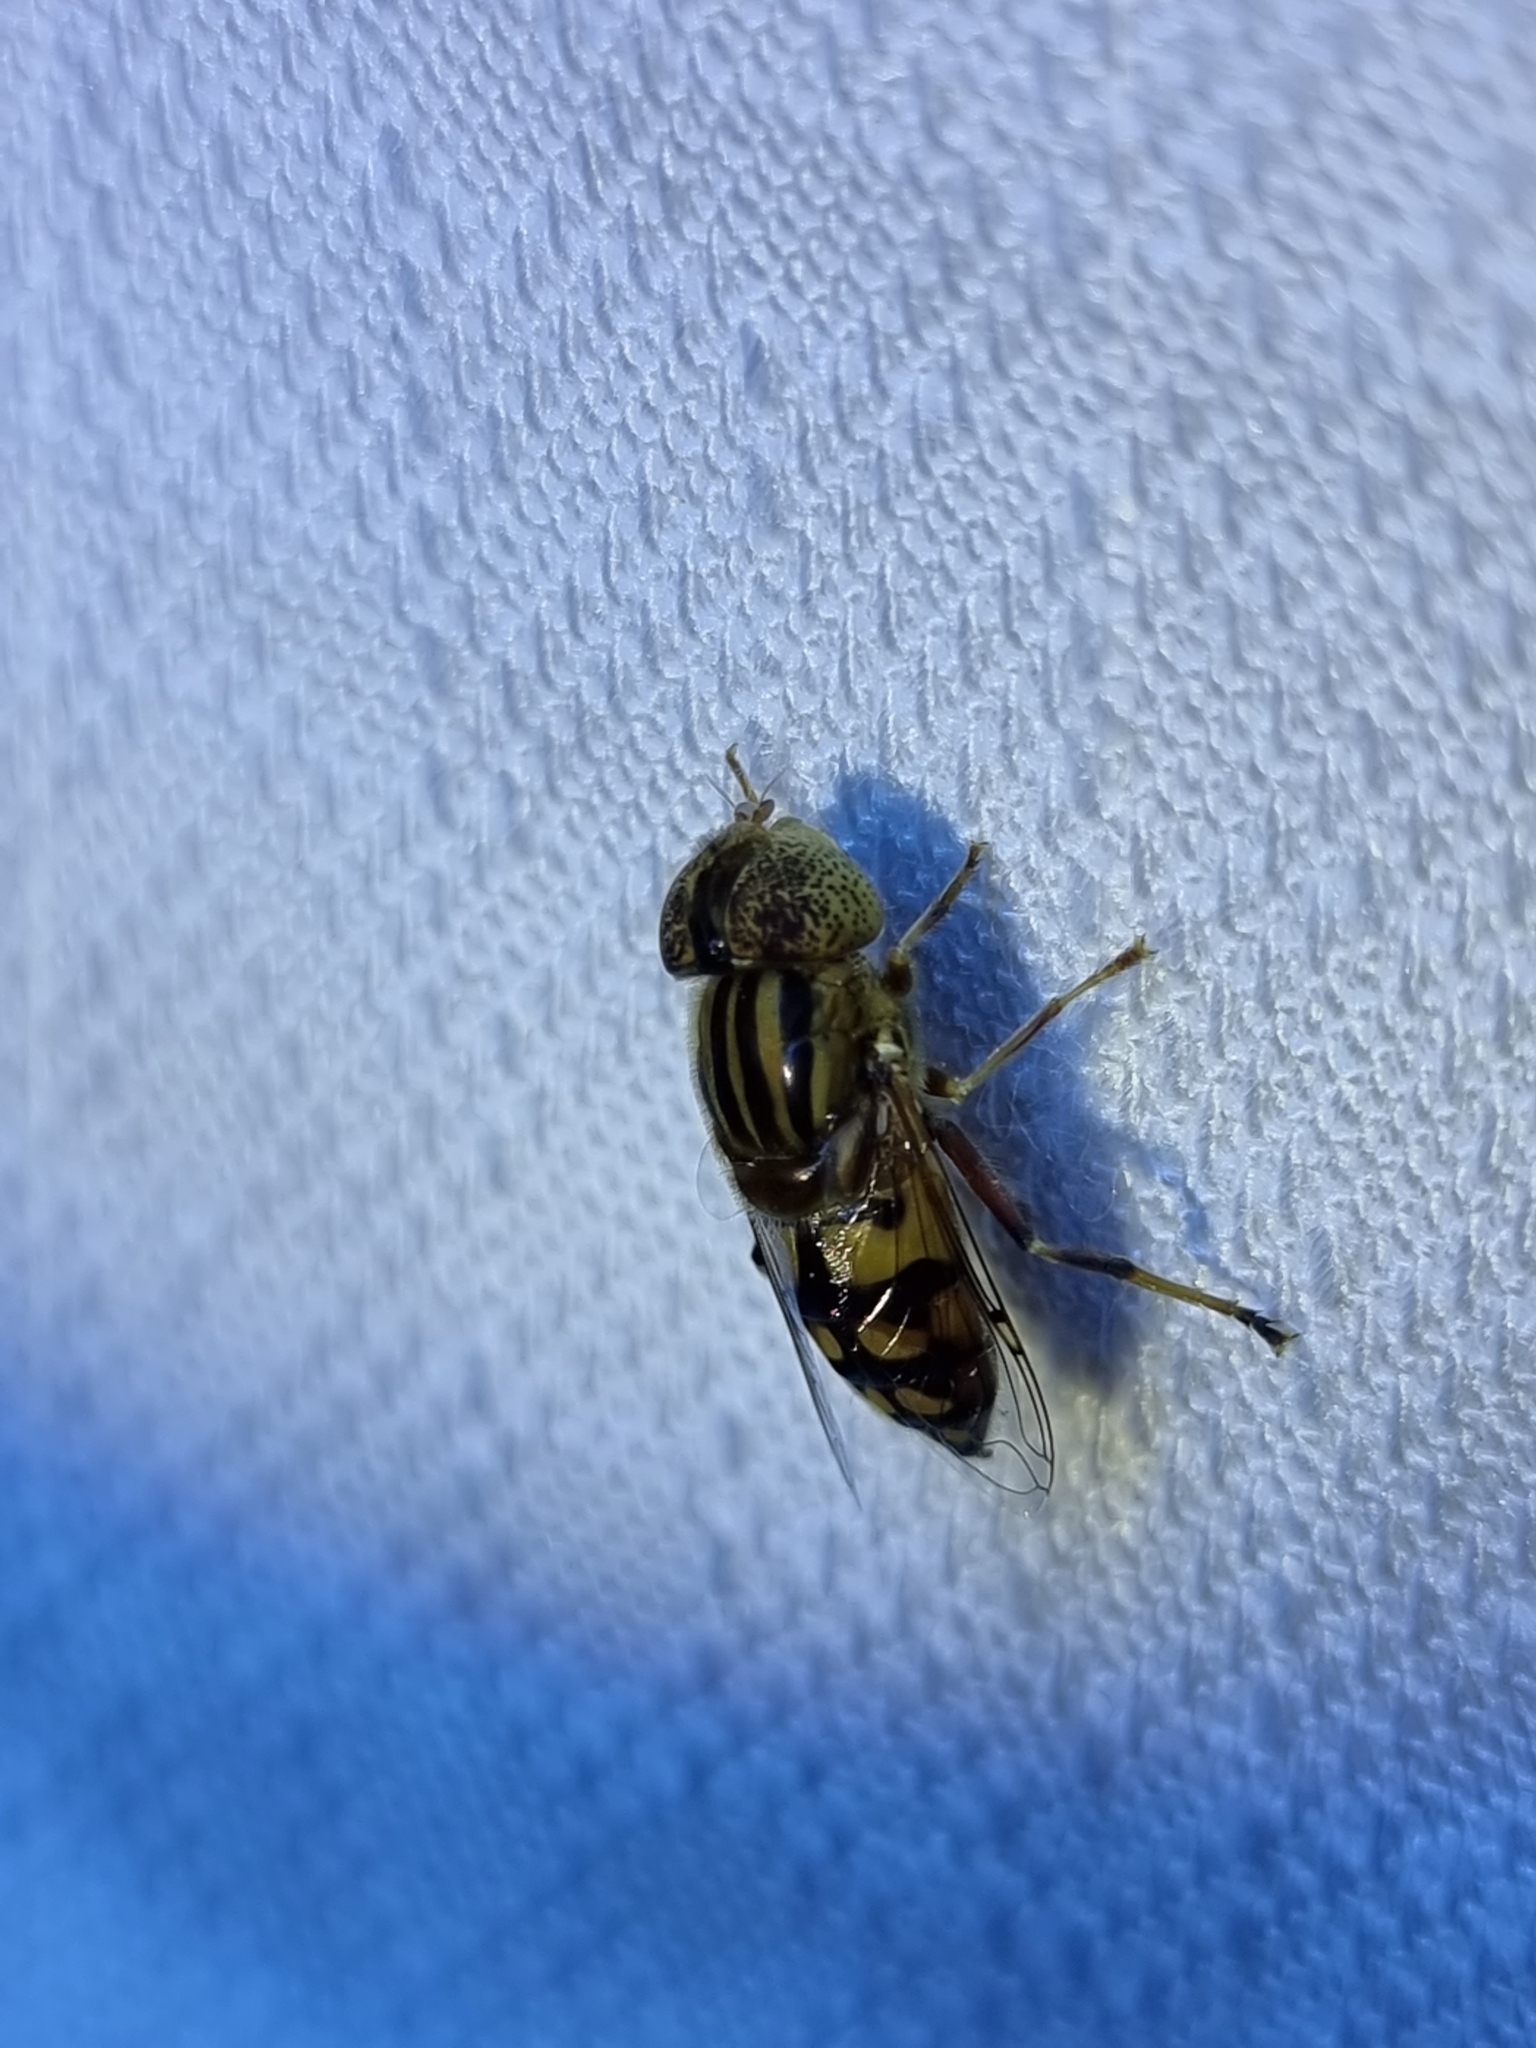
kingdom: Animalia
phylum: Arthropoda
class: Insecta
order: Diptera
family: Syrphidae
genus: Eristalinus
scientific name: Eristalinus punctulatus
